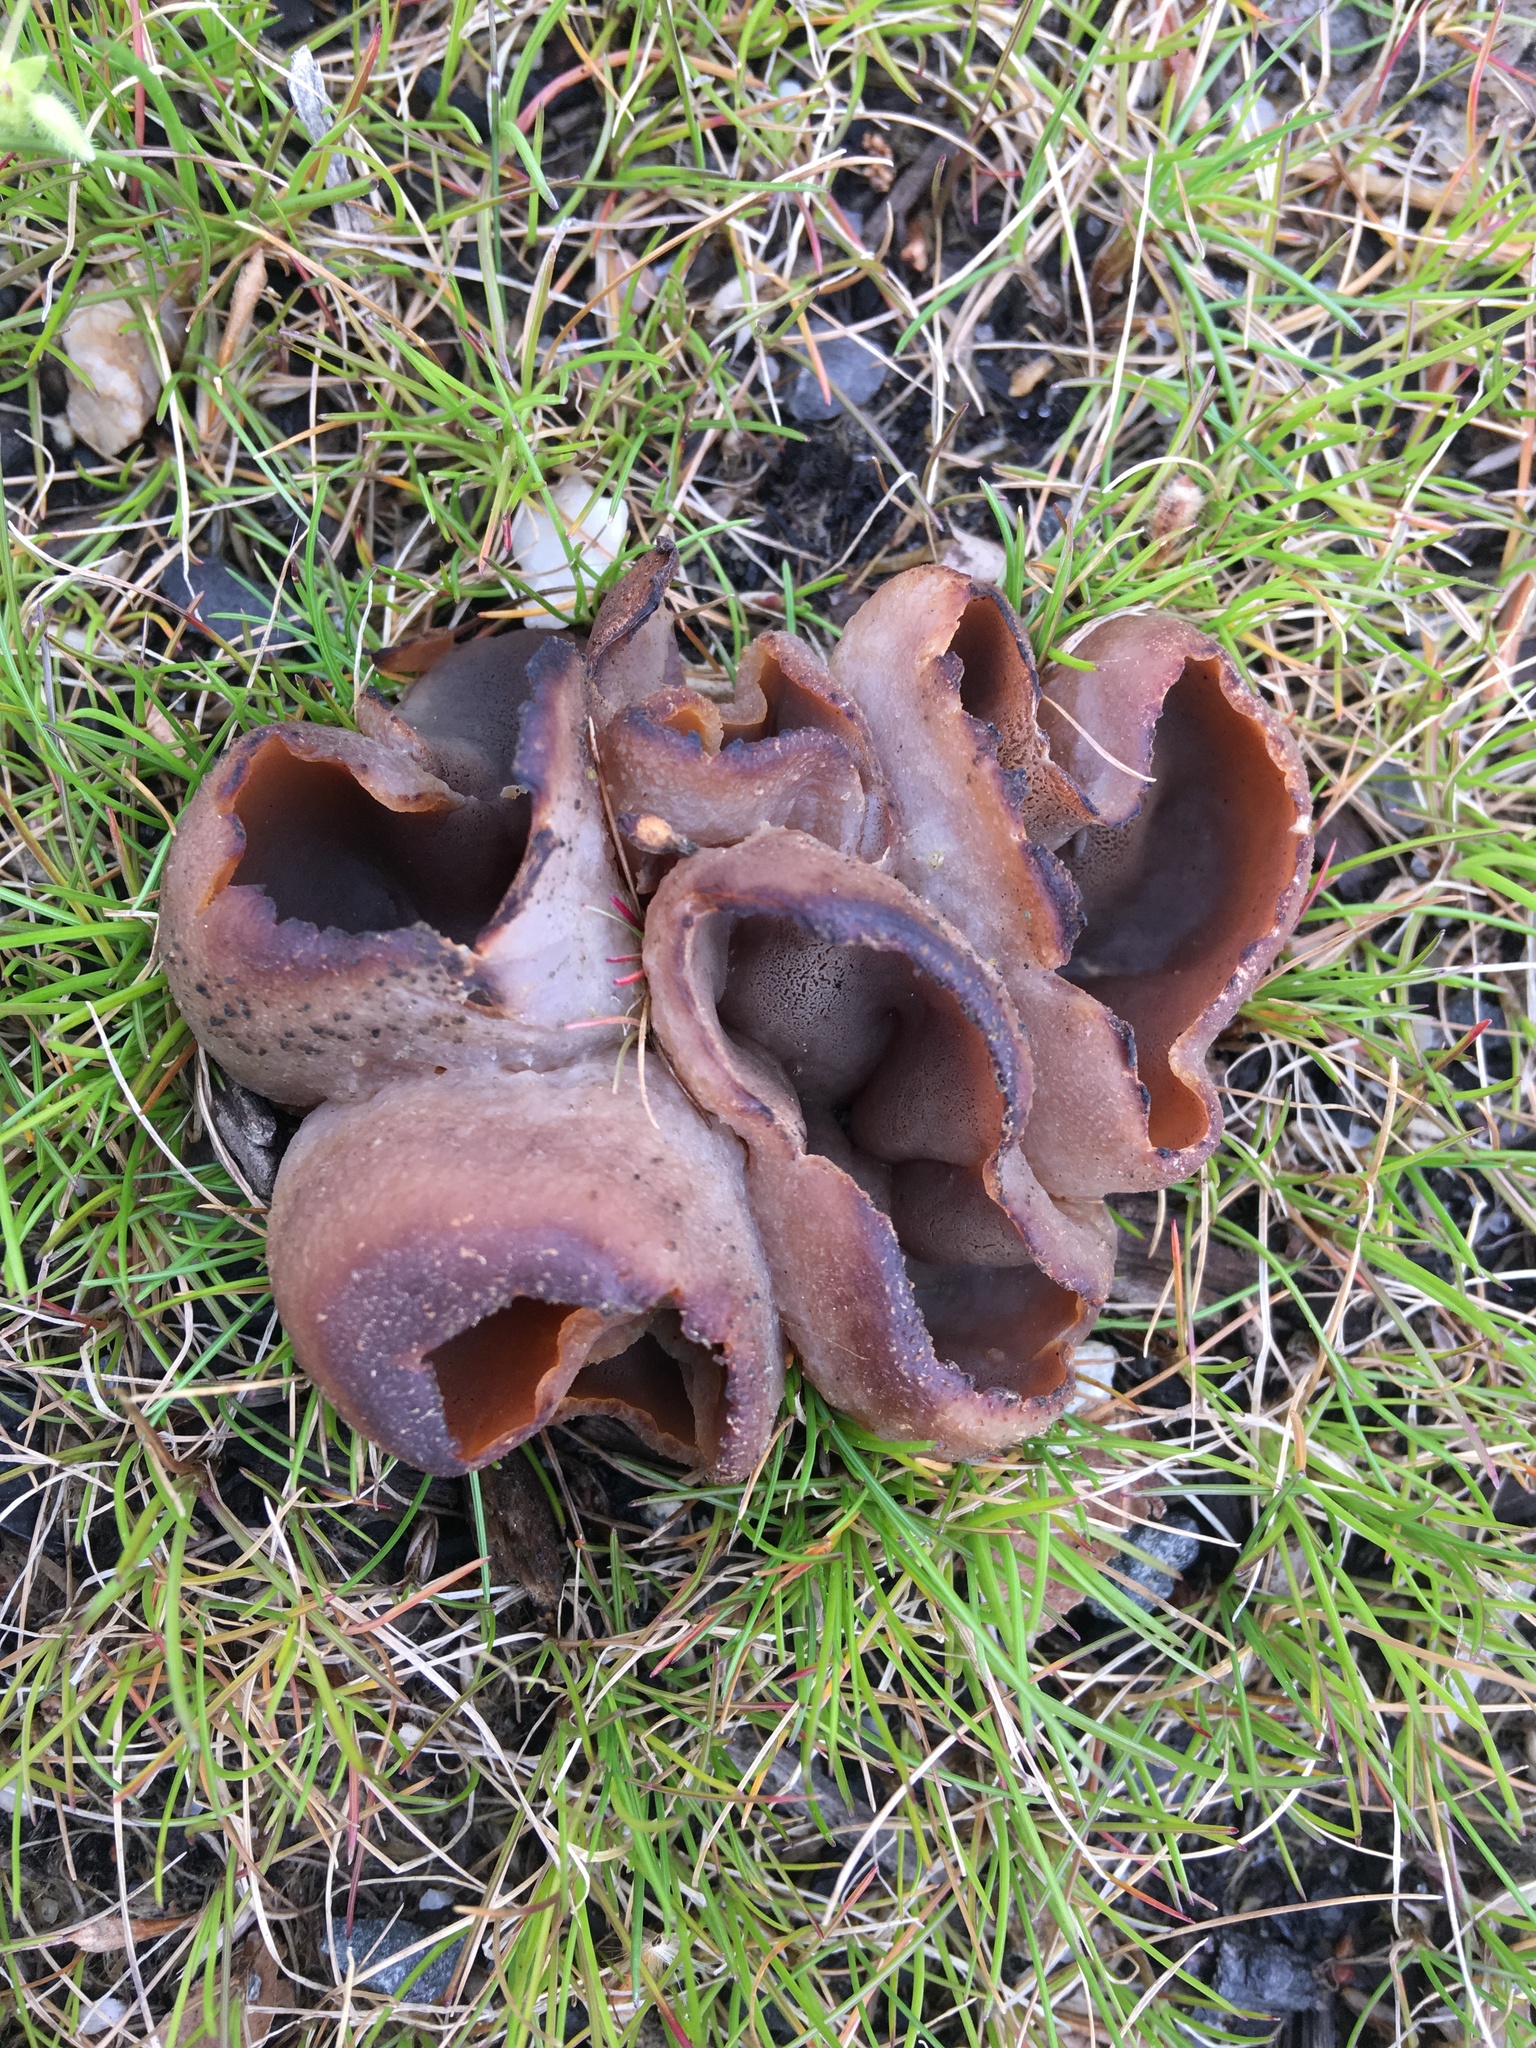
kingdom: Fungi
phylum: Ascomycota
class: Pezizomycetes
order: Pezizales
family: Pezizaceae
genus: Peziza
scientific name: Peziza vesiculosa
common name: Blistered cup
